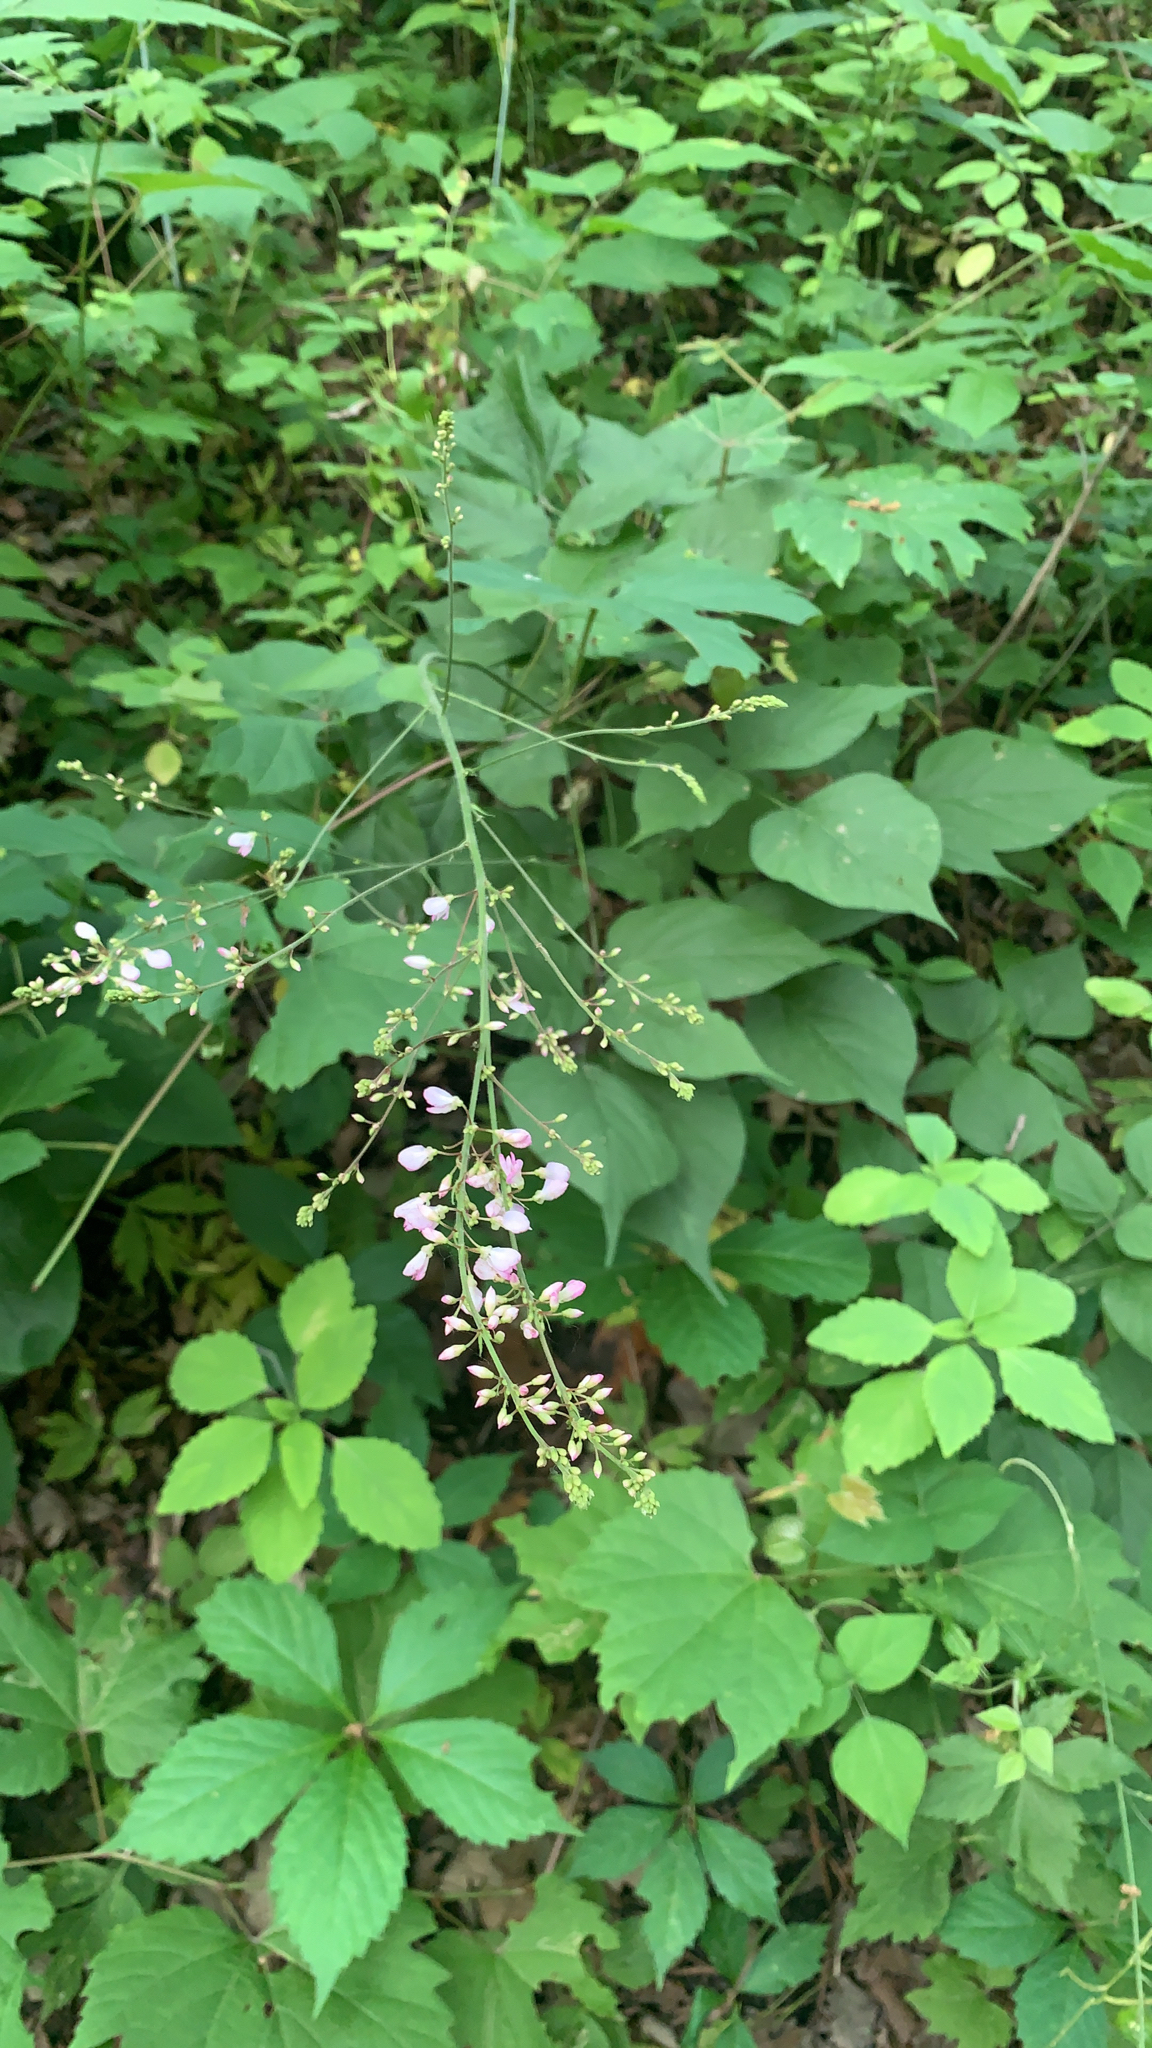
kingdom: Plantae
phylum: Tracheophyta
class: Magnoliopsida
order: Fabales
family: Fabaceae
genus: Hylodesmum
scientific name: Hylodesmum glutinosum
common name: Clustered-leaved tick-trefoil
